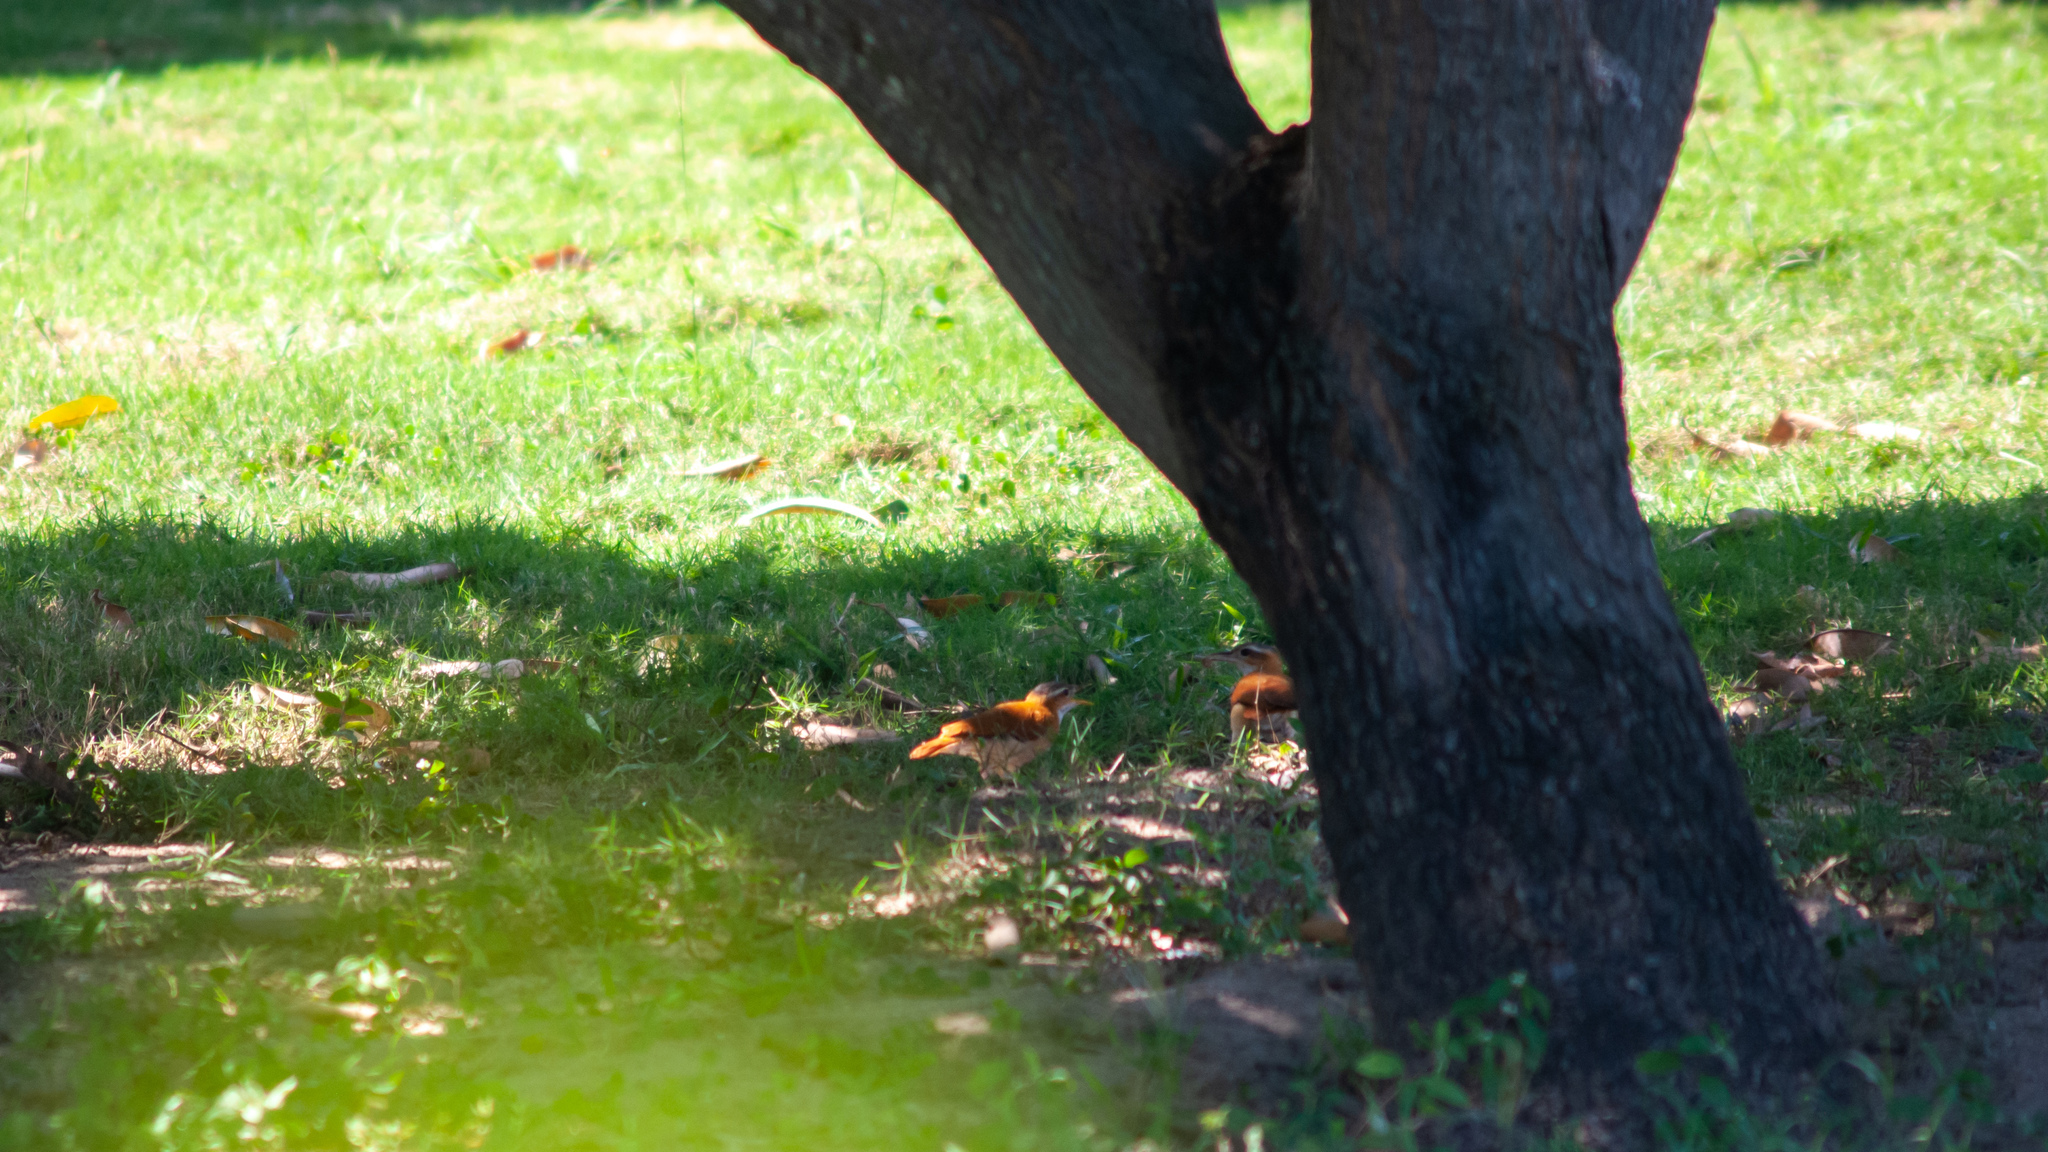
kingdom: Animalia
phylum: Chordata
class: Aves
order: Passeriformes
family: Furnariidae
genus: Furnarius
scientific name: Furnarius longirostris
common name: Caribbean hornero
